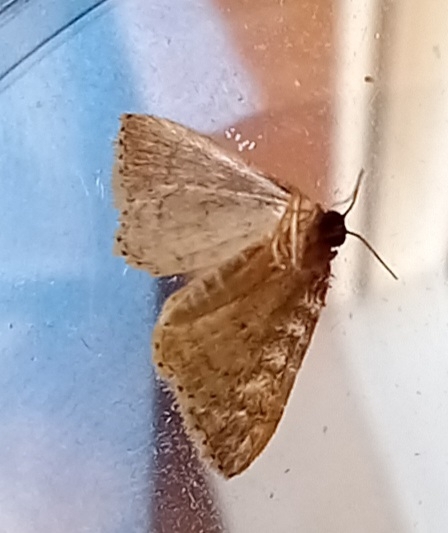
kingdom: Animalia
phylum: Arthropoda
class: Insecta
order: Lepidoptera
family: Geometridae
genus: Idaea
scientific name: Idaea obsoletaria
